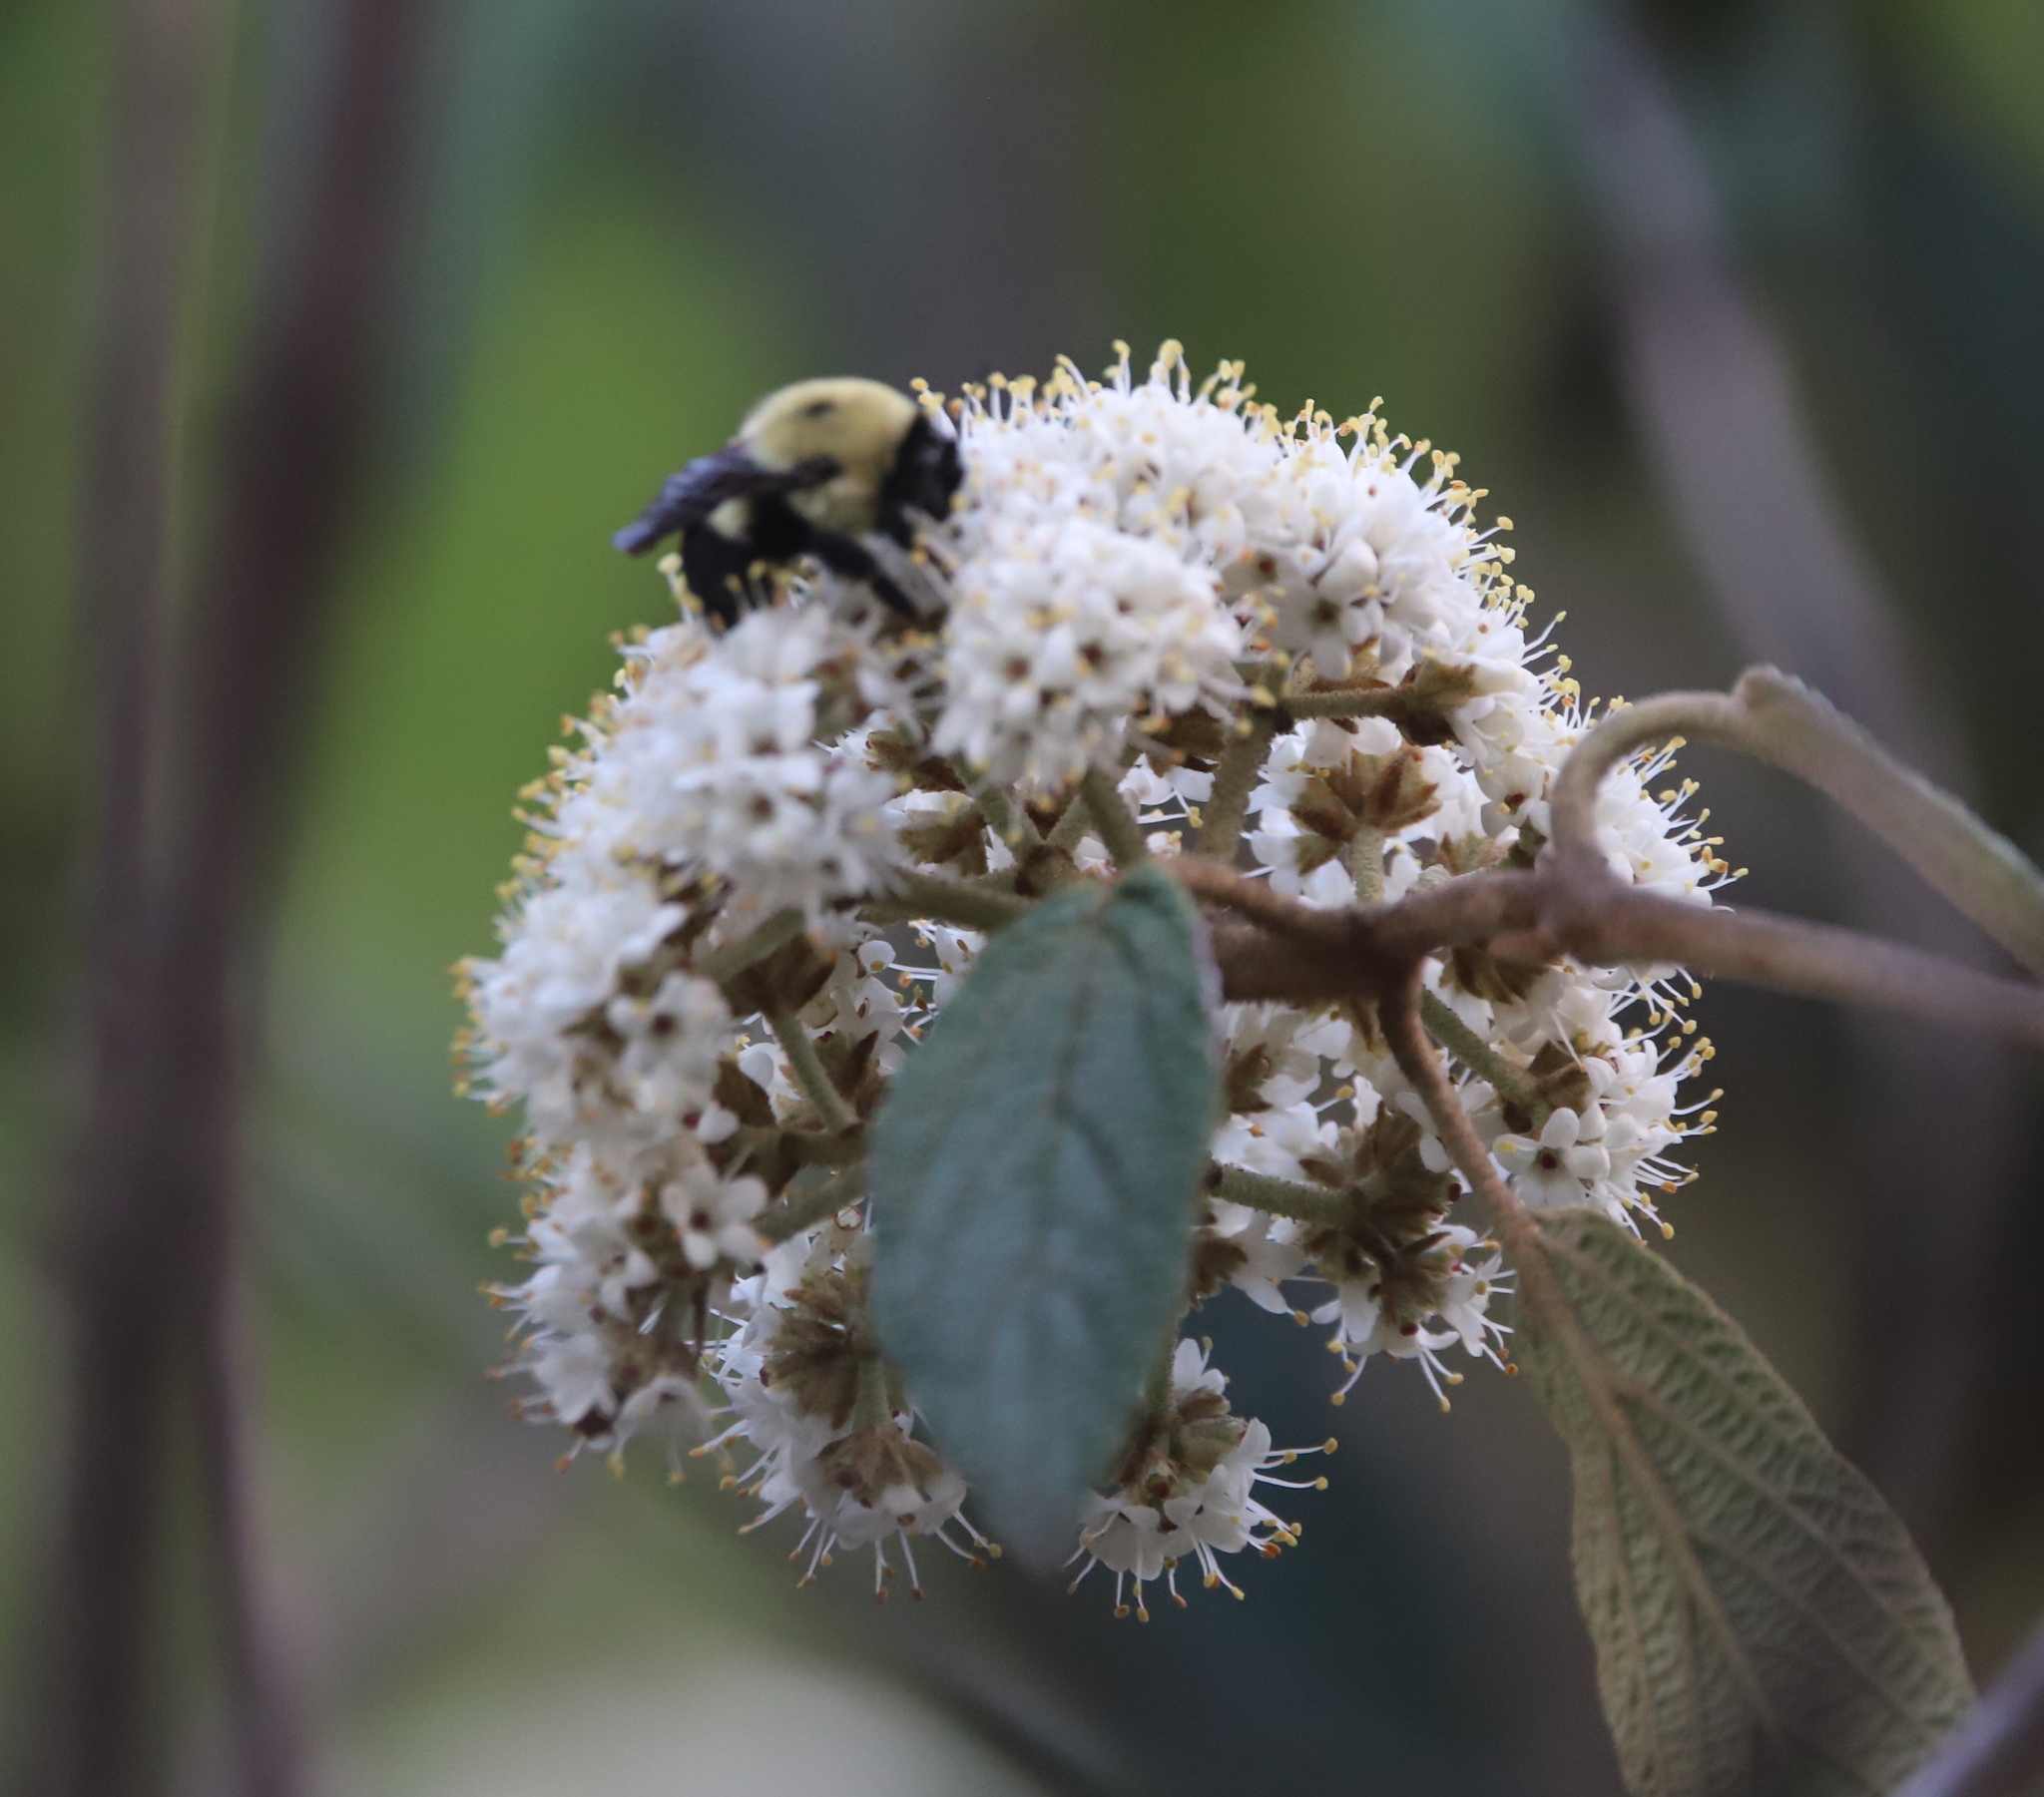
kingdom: Animalia
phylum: Arthropoda
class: Insecta
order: Hymenoptera
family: Apidae
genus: Bombus
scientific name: Bombus griseocollis
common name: Brown-belted bumble bee
